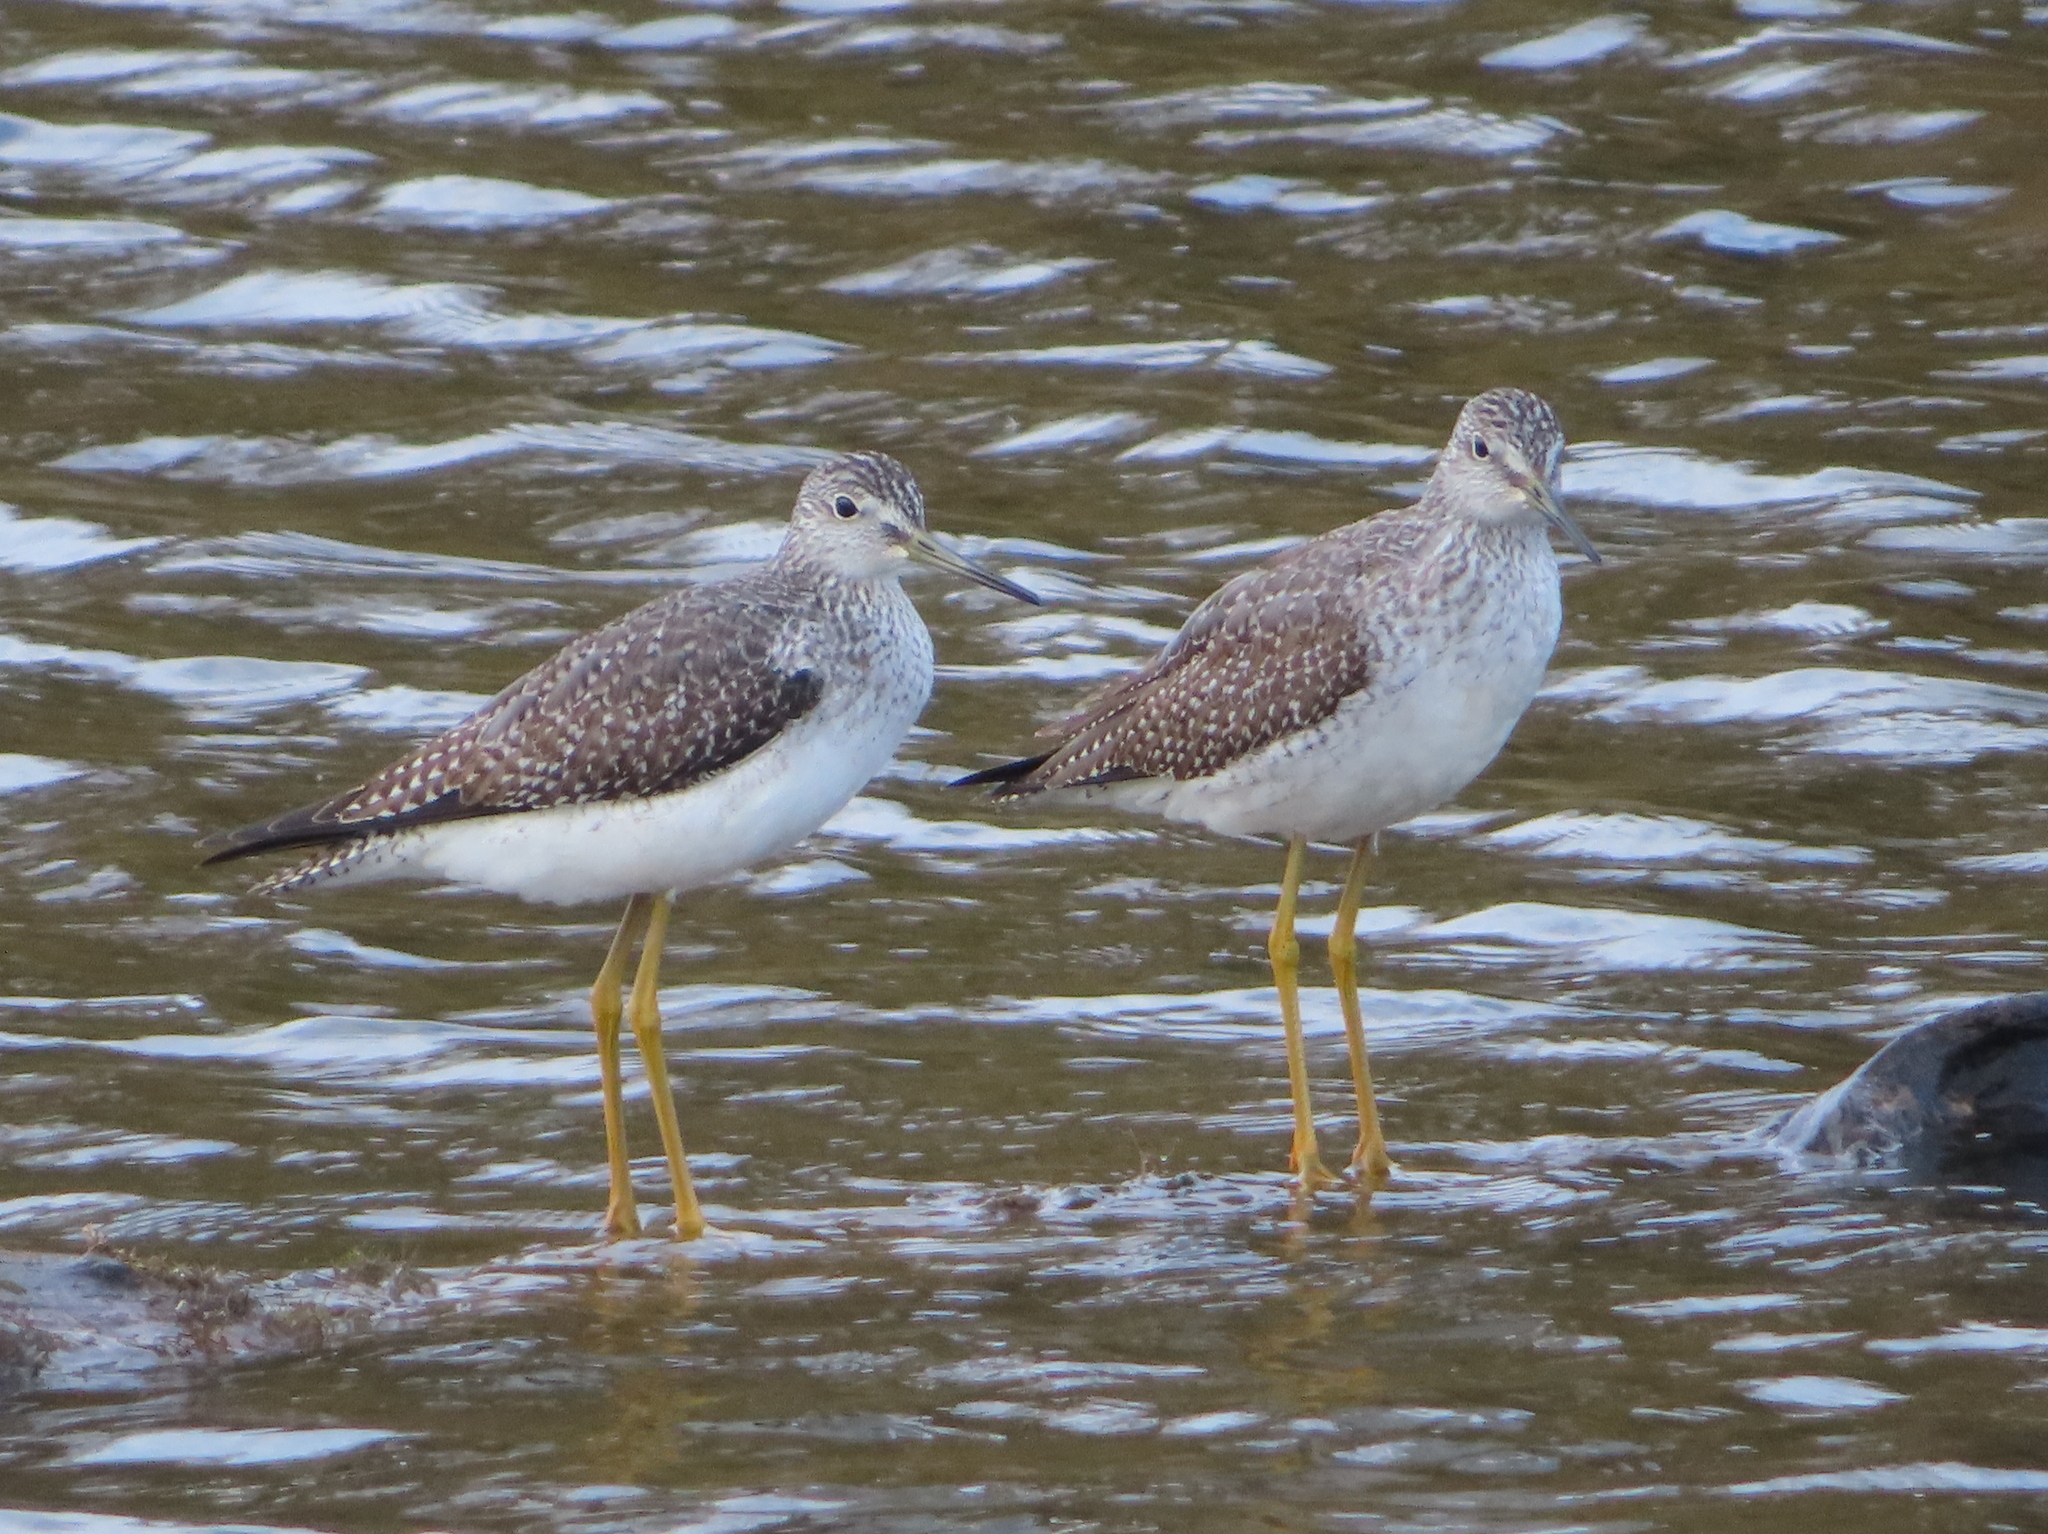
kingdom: Animalia
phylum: Chordata
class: Aves
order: Charadriiformes
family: Scolopacidae
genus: Tringa
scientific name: Tringa melanoleuca
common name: Greater yellowlegs
